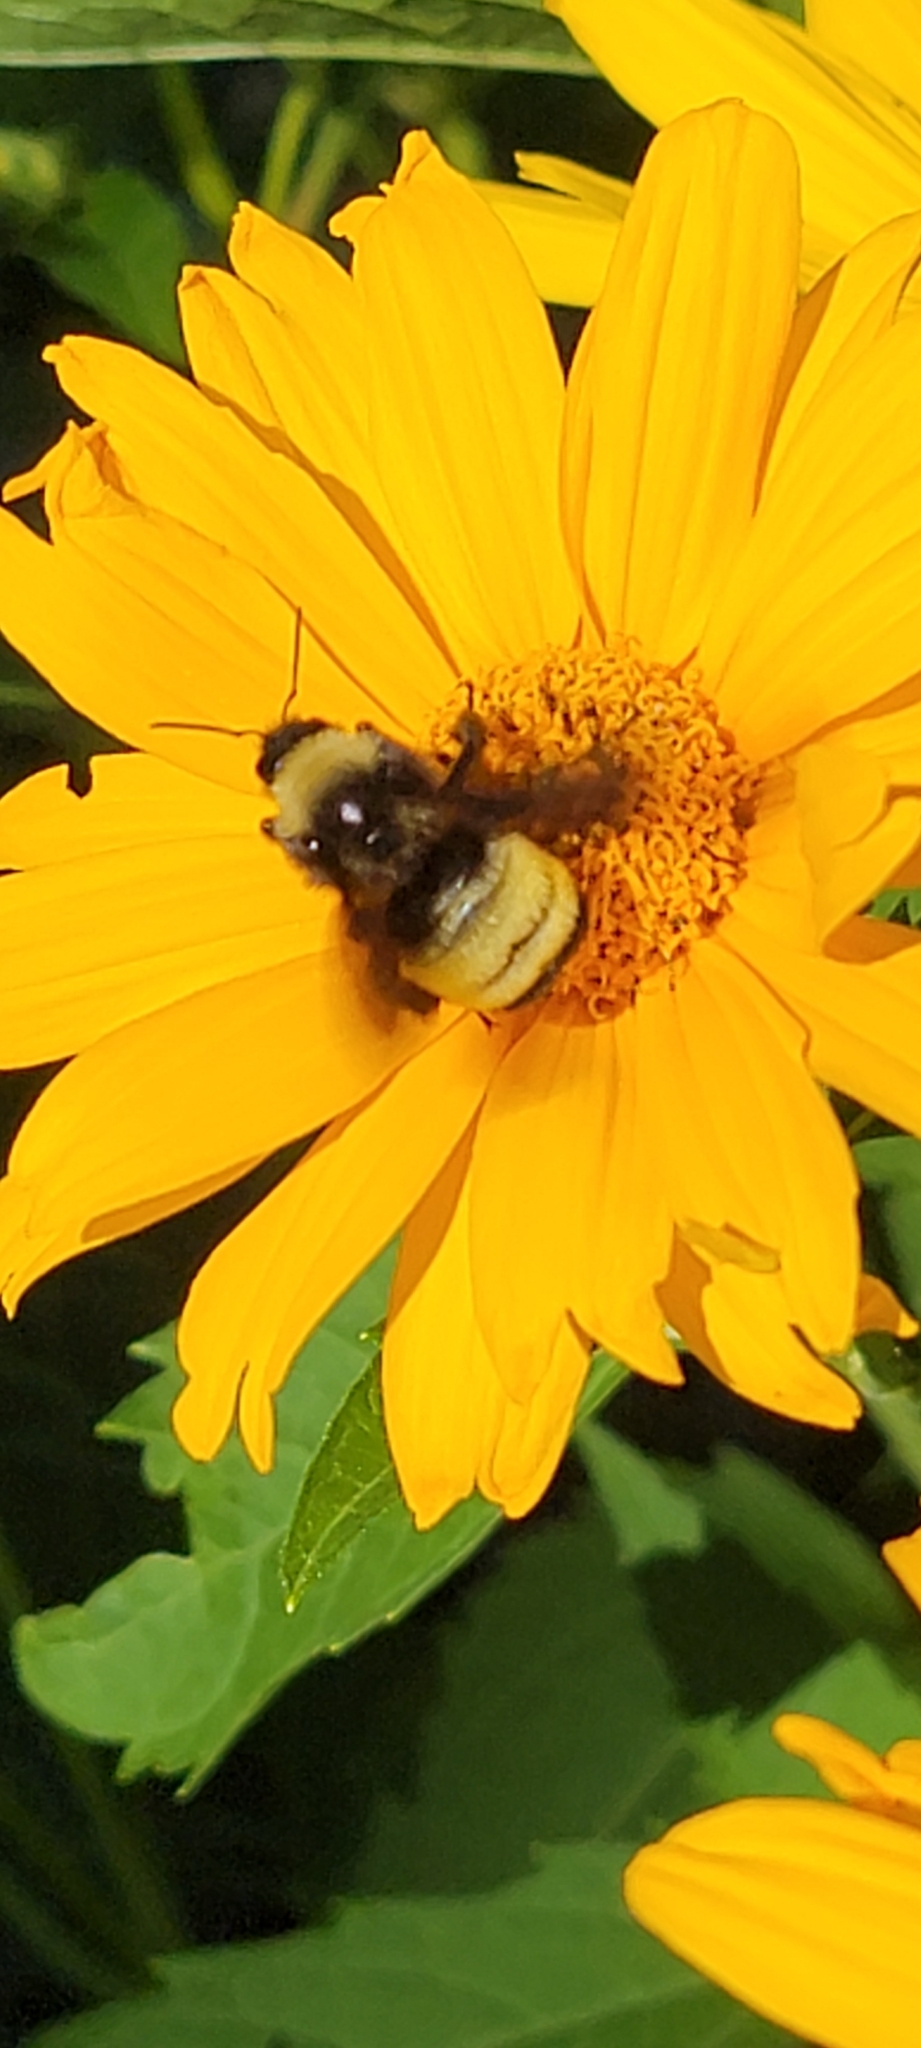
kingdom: Animalia
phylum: Arthropoda
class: Insecta
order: Hymenoptera
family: Apidae
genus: Bombus
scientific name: Bombus pensylvanicus
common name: Bumble bee
